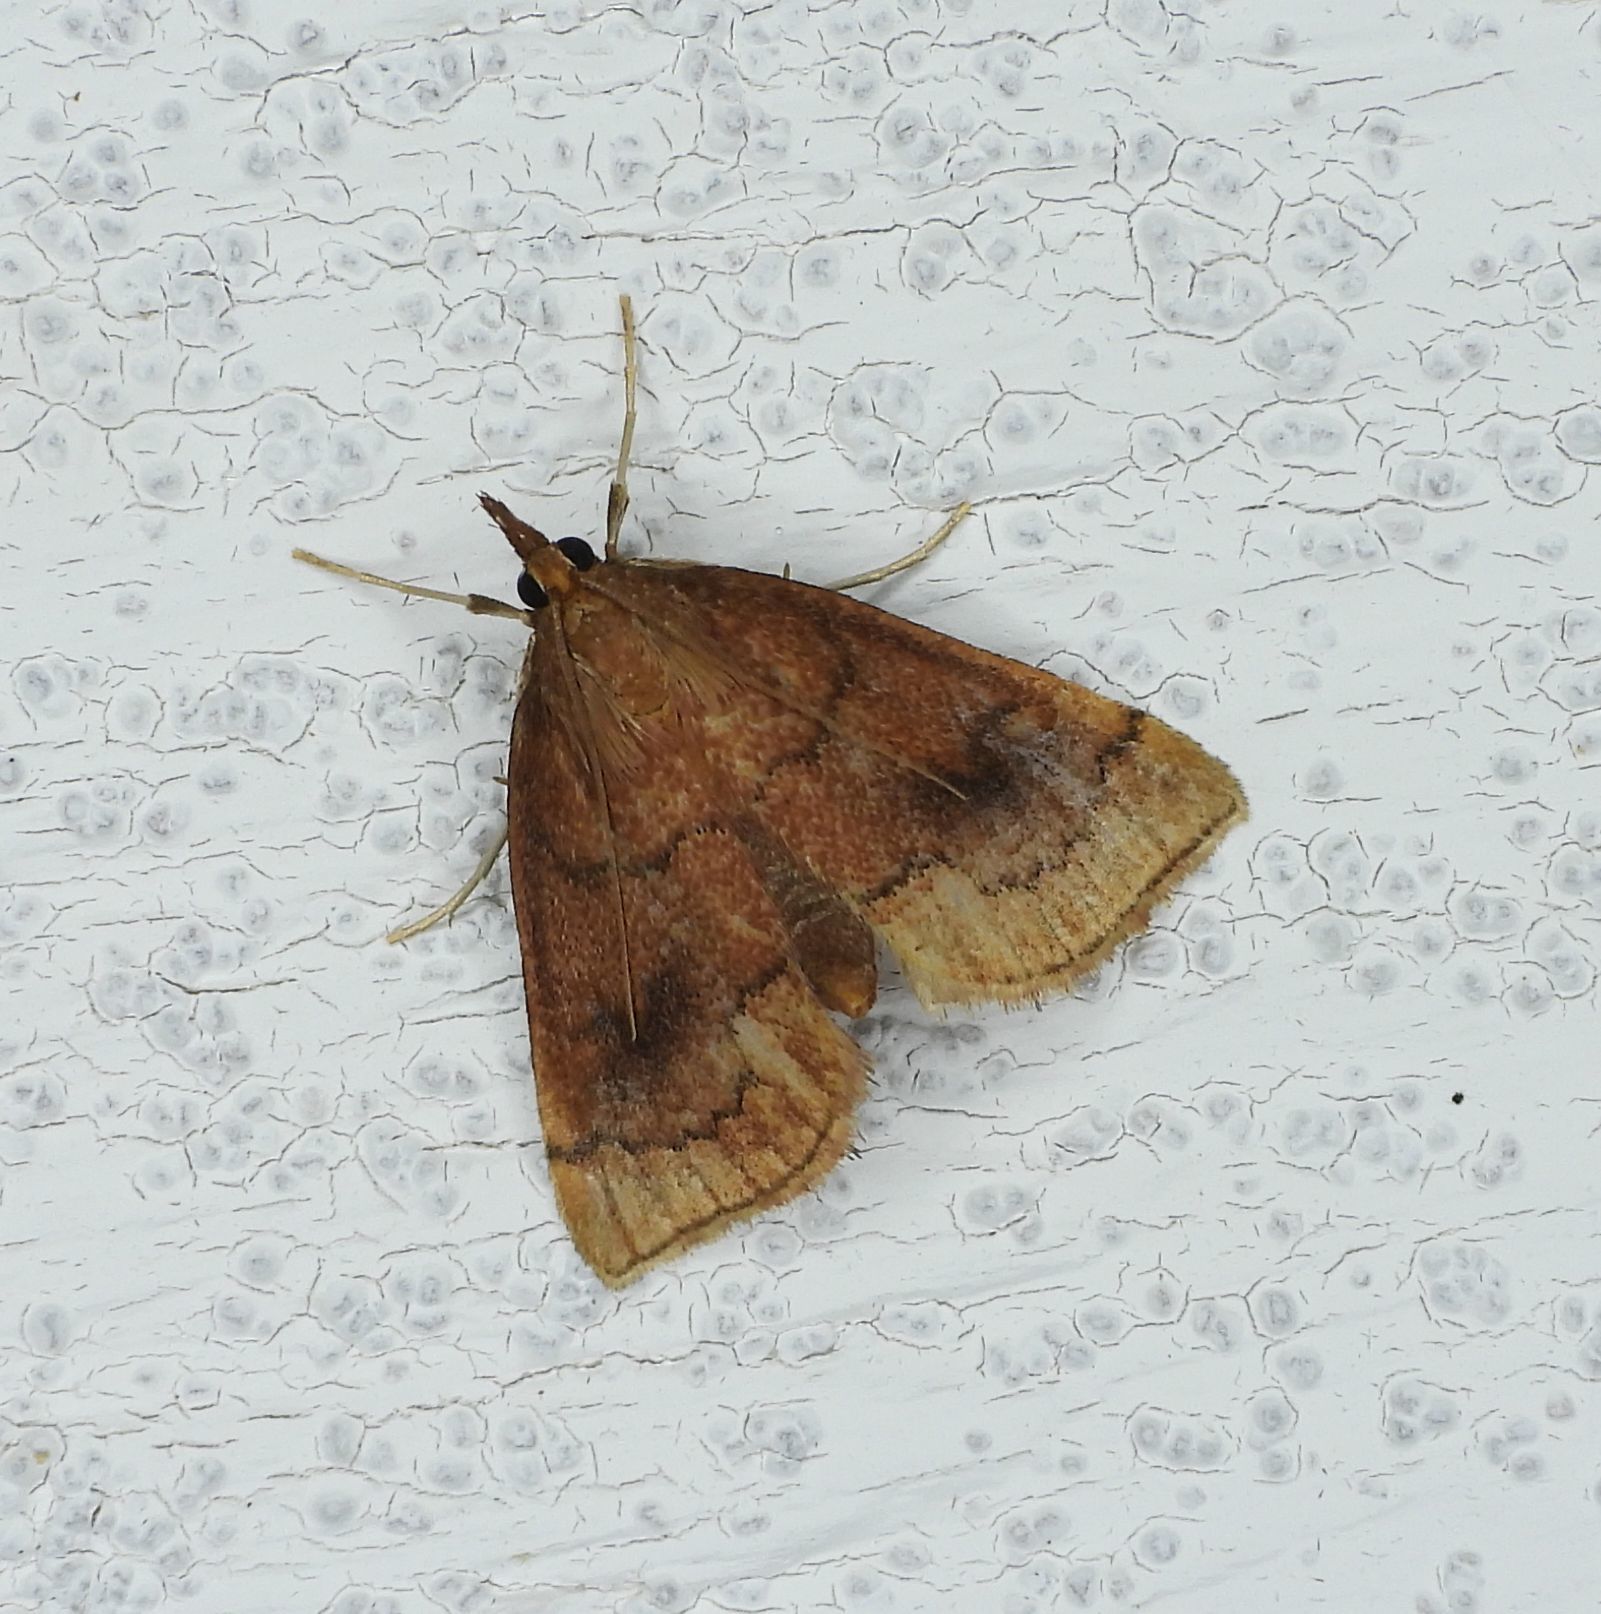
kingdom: Animalia
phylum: Arthropoda
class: Insecta
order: Lepidoptera
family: Crambidae
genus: Fumibotys
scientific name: Fumibotys fumalis
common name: Mint root borer moth
